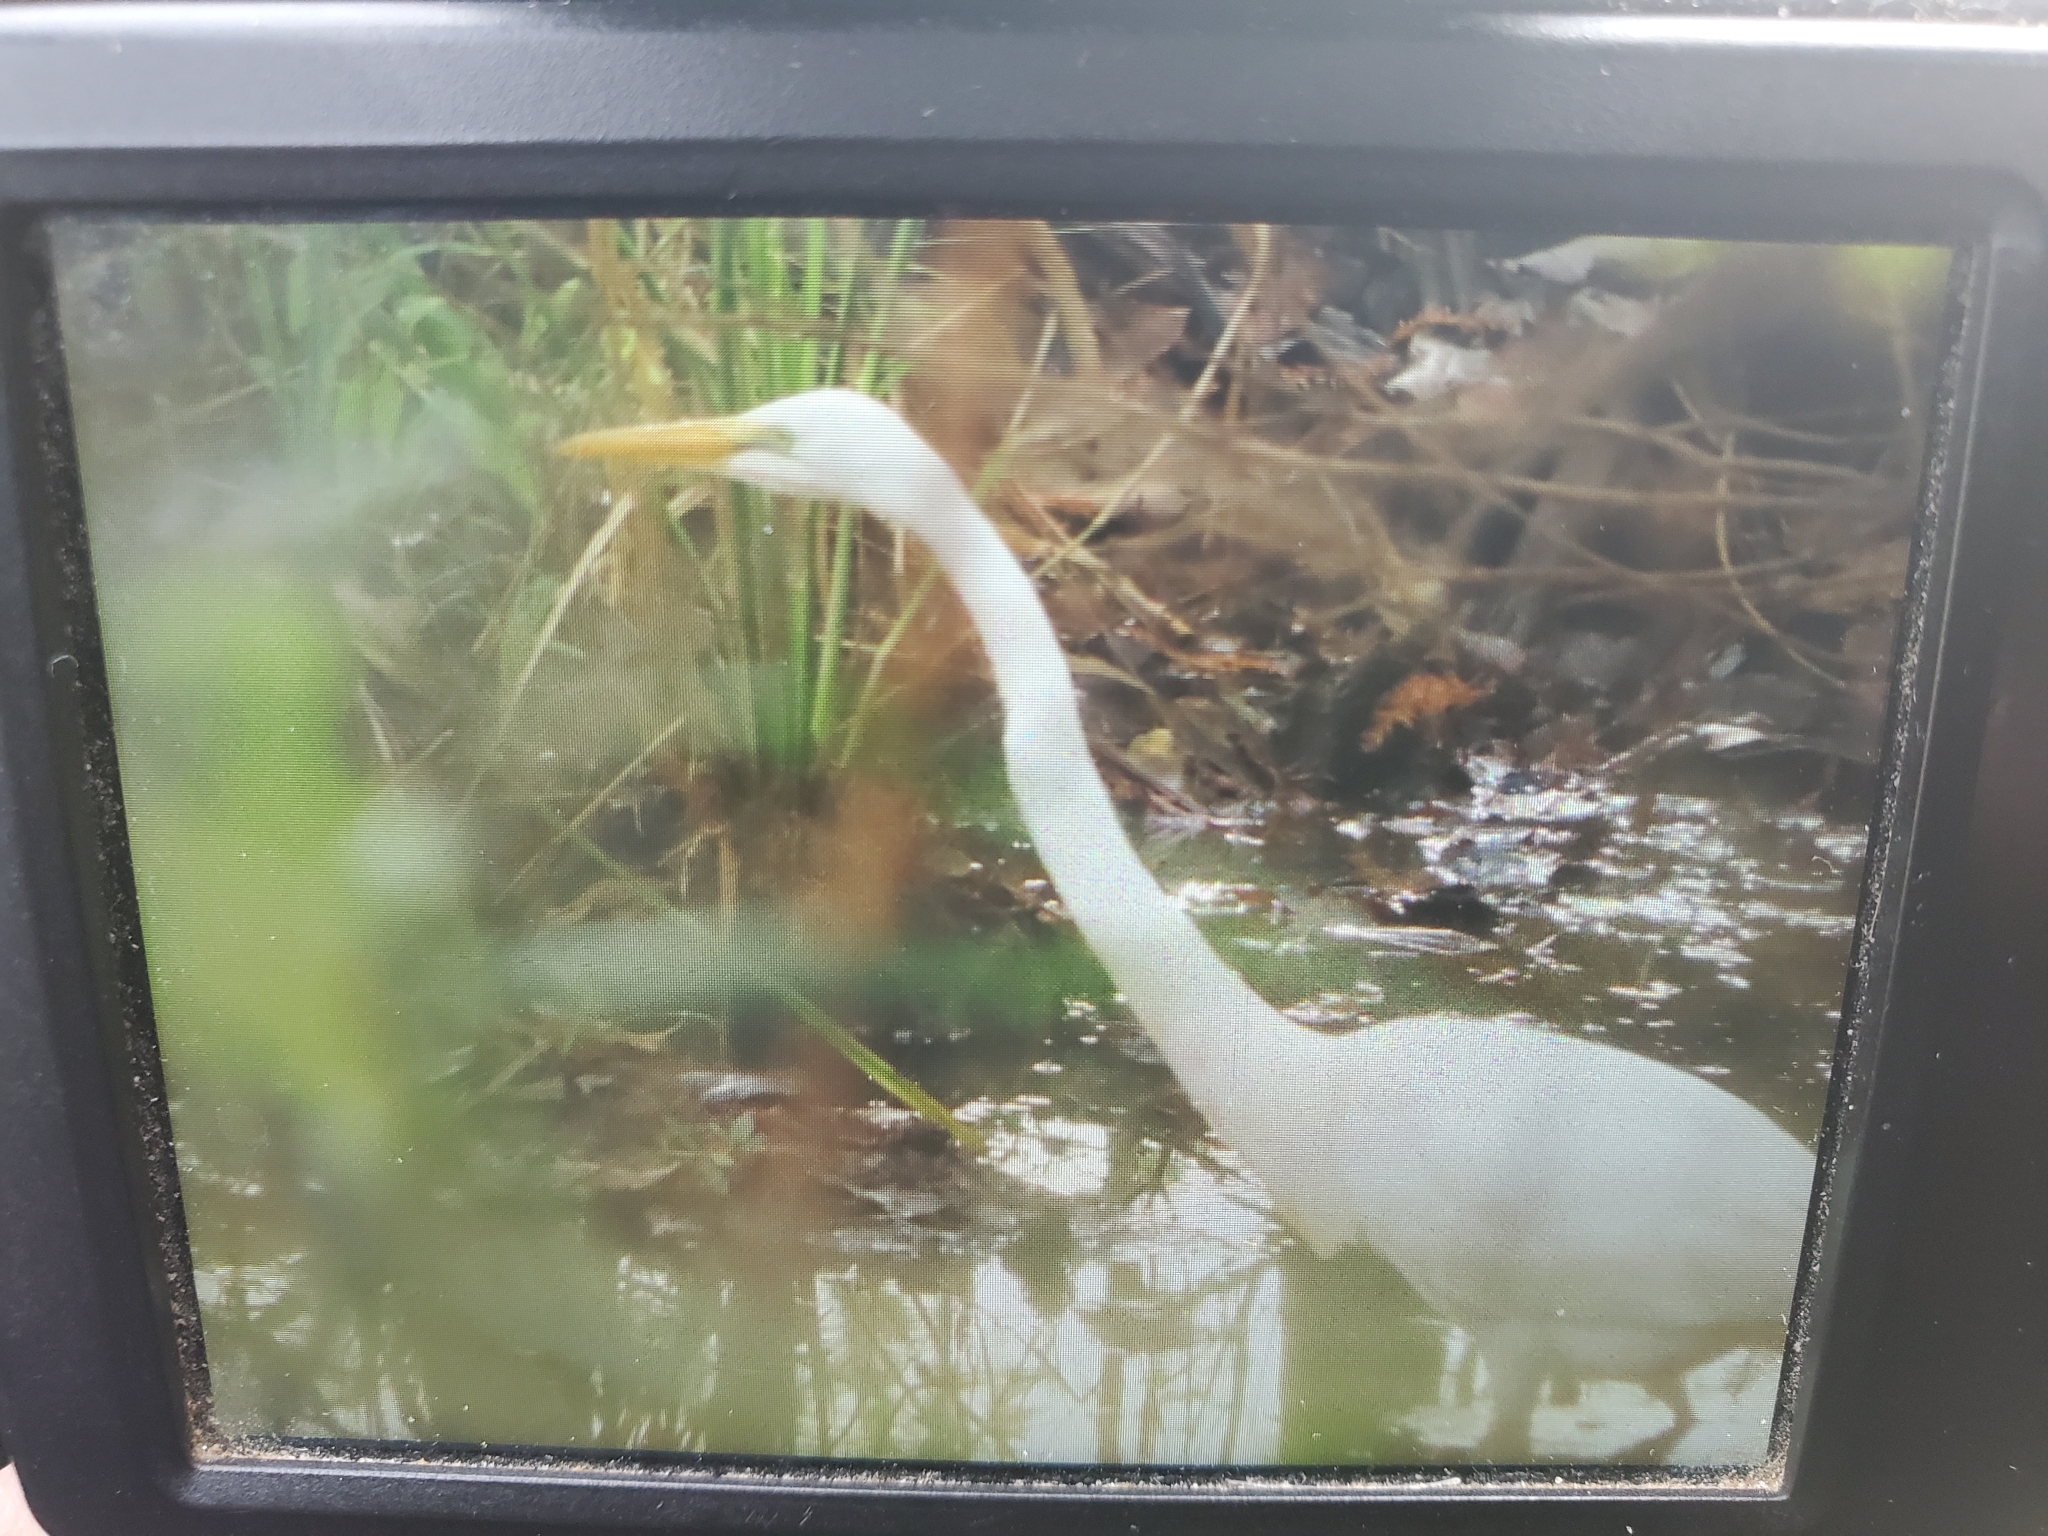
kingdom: Animalia
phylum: Chordata
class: Aves
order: Pelecaniformes
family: Ardeidae
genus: Ardea
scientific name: Ardea alba
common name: Great egret
